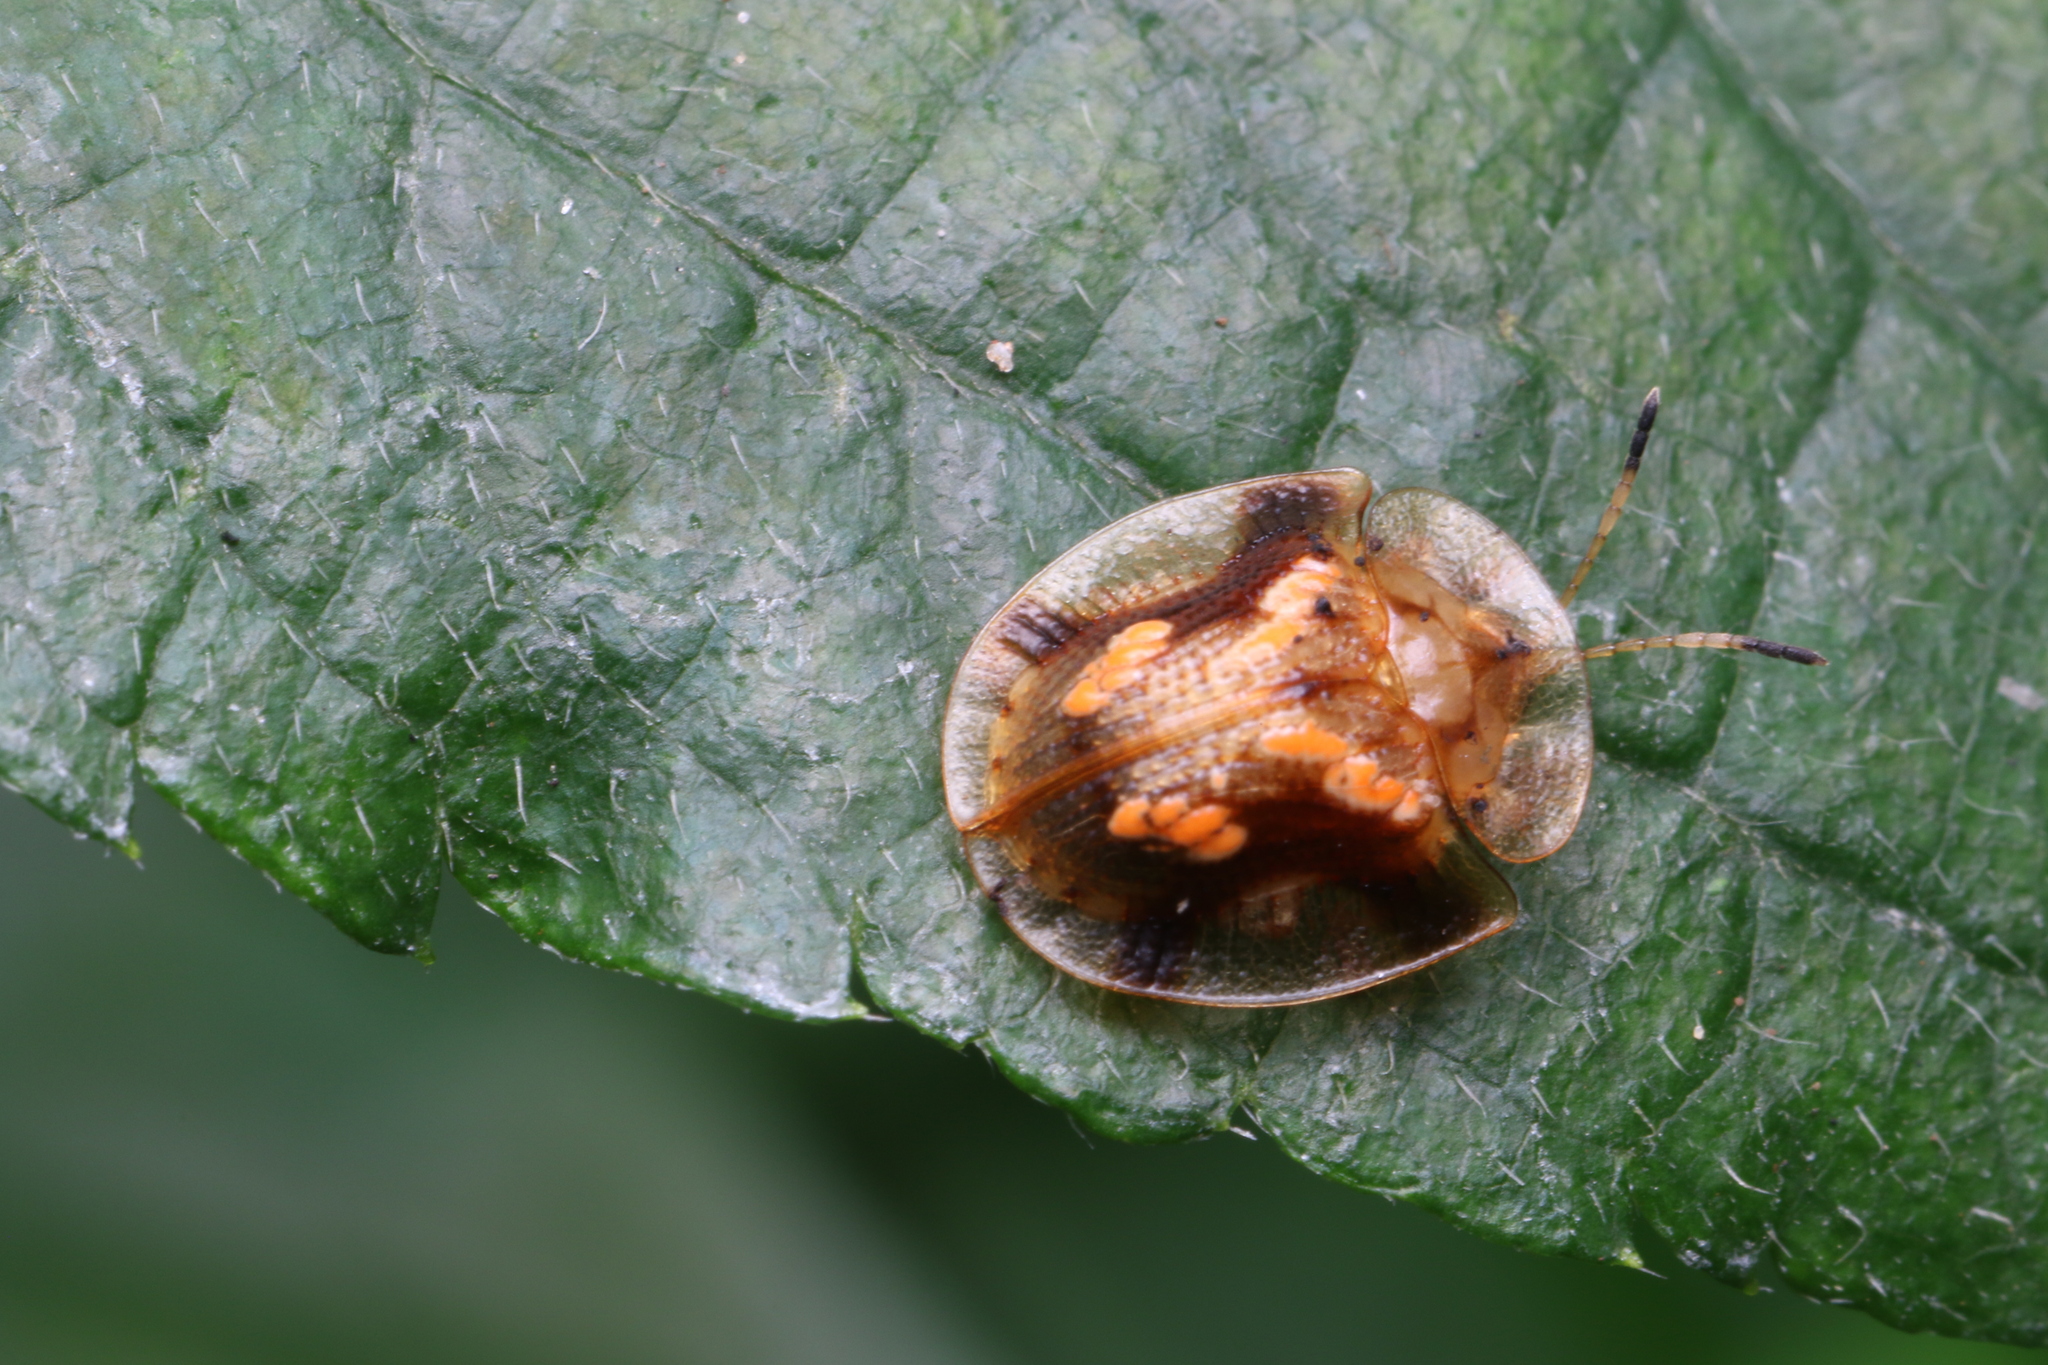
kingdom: Animalia
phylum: Arthropoda
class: Insecta
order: Coleoptera
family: Chrysomelidae
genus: Helocassis
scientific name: Helocassis flavorugosa
